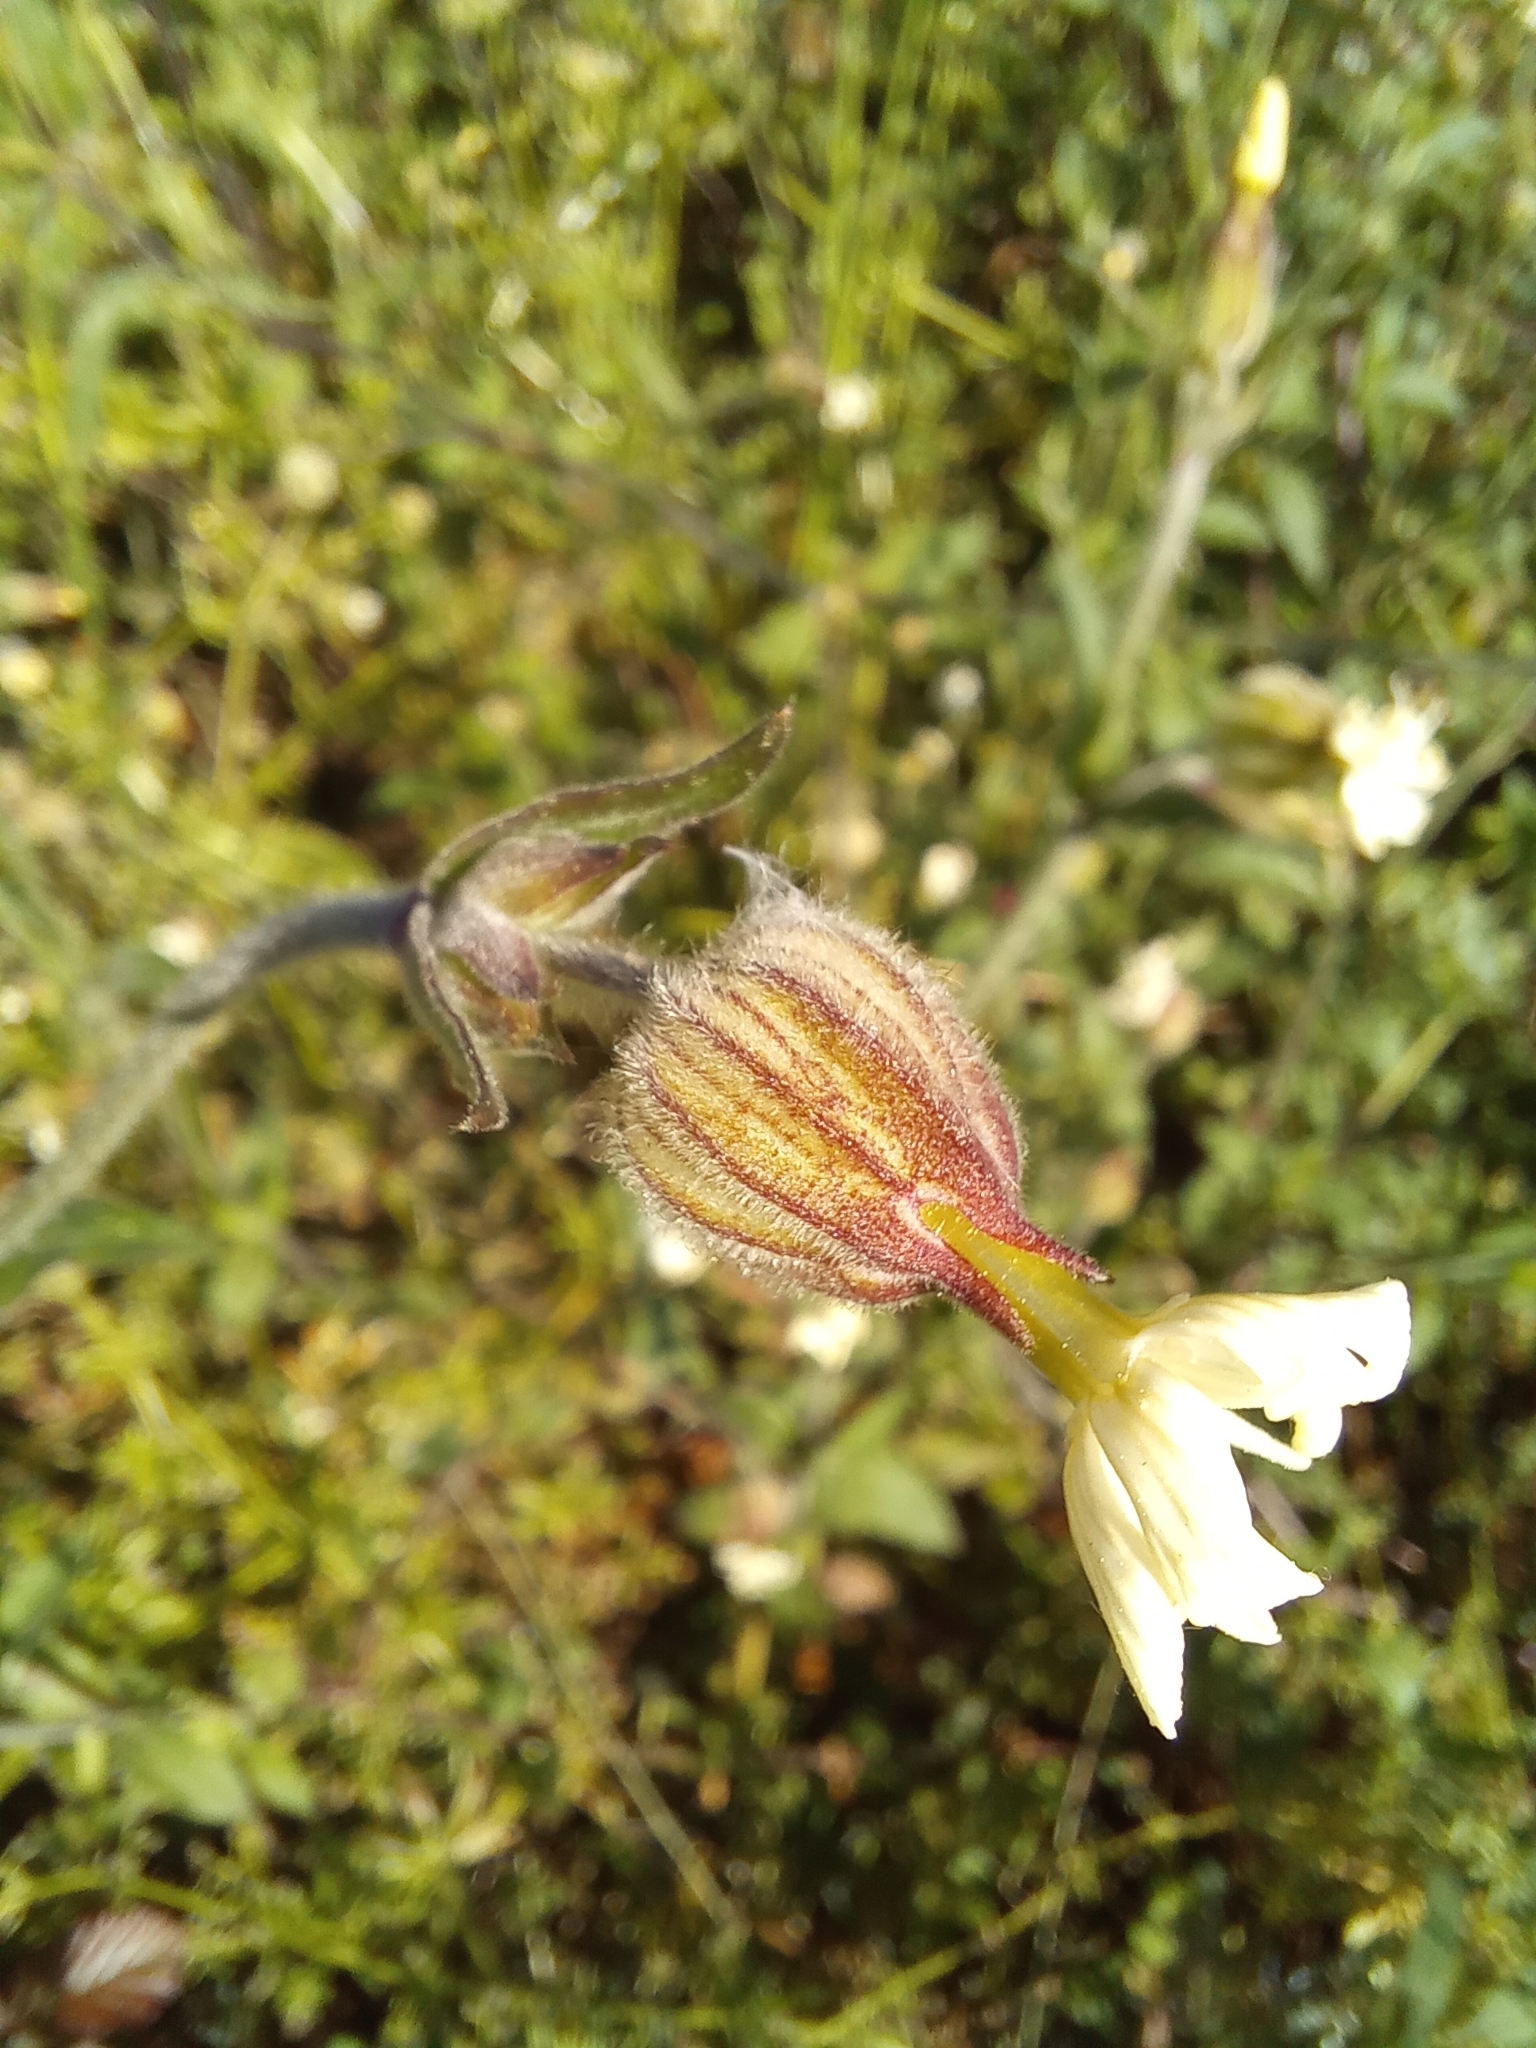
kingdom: Plantae
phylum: Tracheophyta
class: Magnoliopsida
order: Caryophyllales
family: Caryophyllaceae
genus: Silene
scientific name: Silene latifolia
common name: White campion
